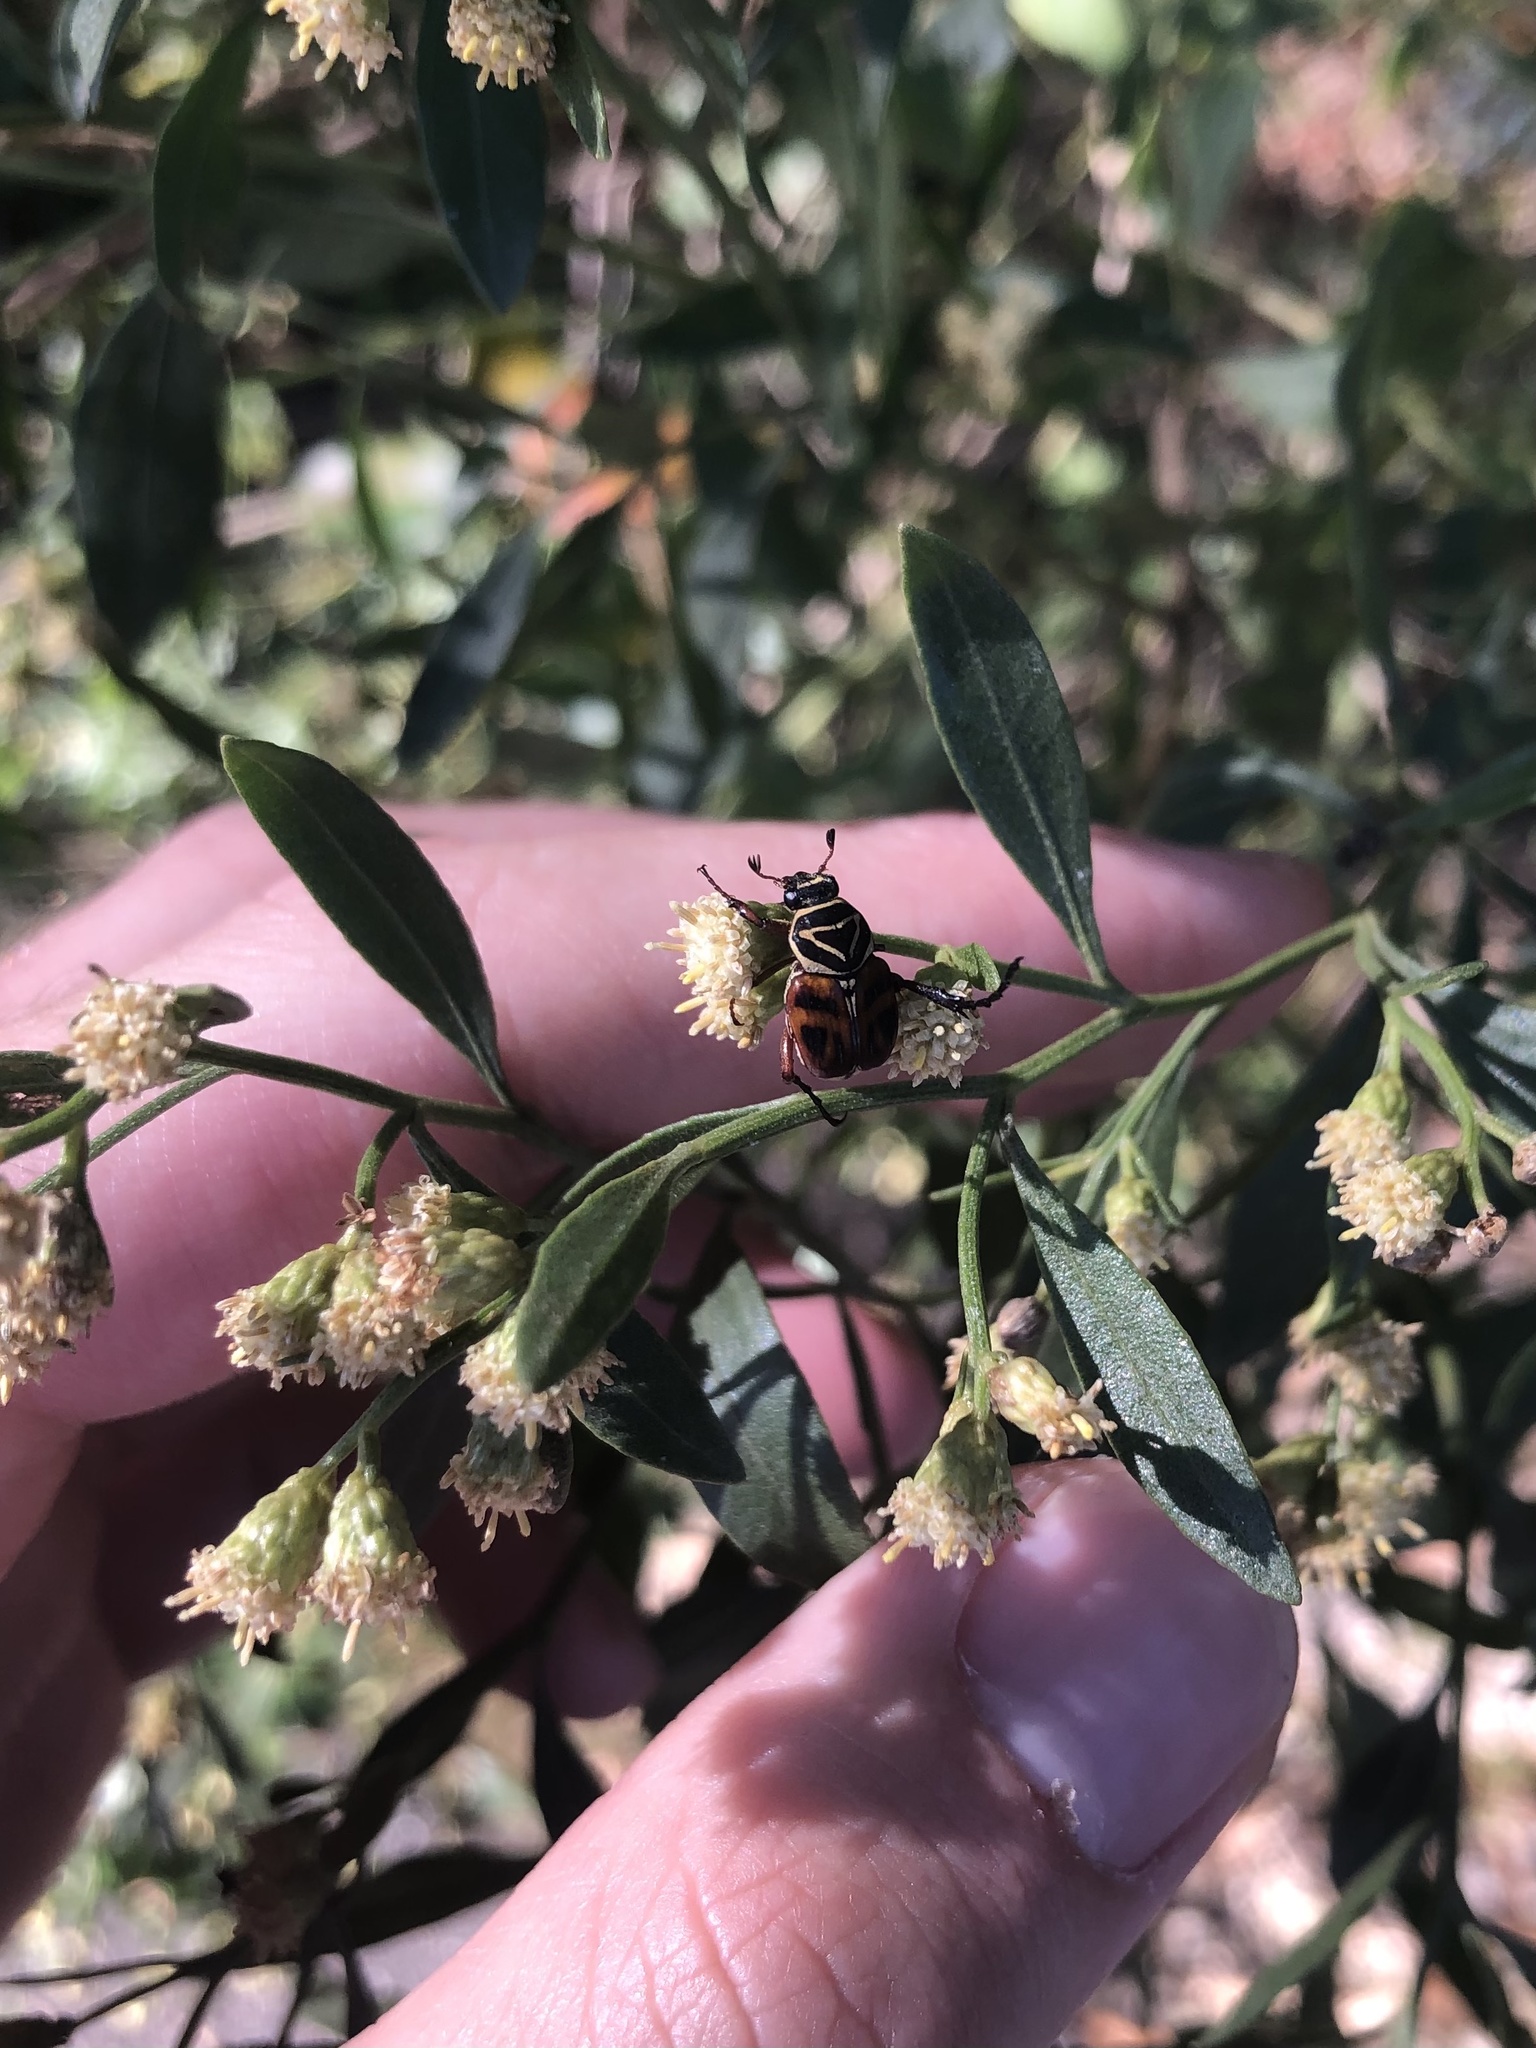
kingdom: Animalia
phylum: Arthropoda
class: Insecta
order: Coleoptera
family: Scarabaeidae
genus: Trigonopeltastes
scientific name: Trigonopeltastes delta
